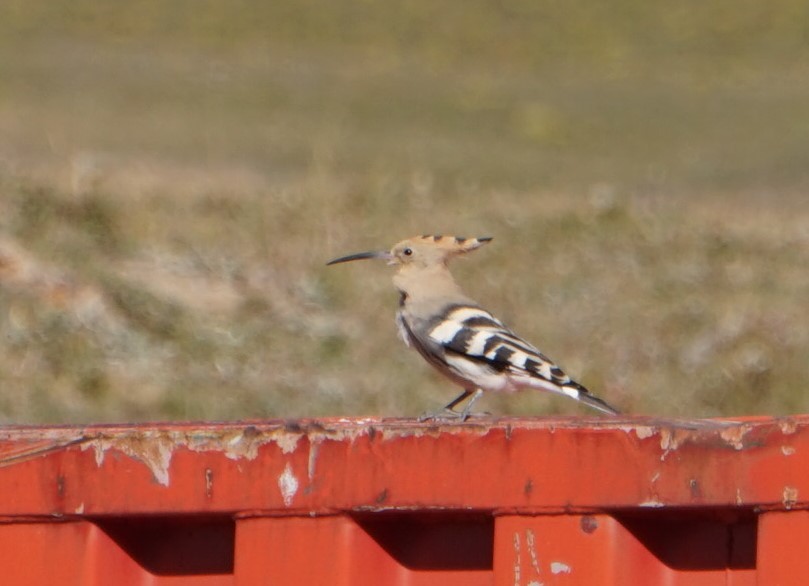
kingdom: Animalia
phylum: Chordata
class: Aves
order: Bucerotiformes
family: Upupidae
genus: Upupa
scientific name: Upupa epops
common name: Eurasian hoopoe
